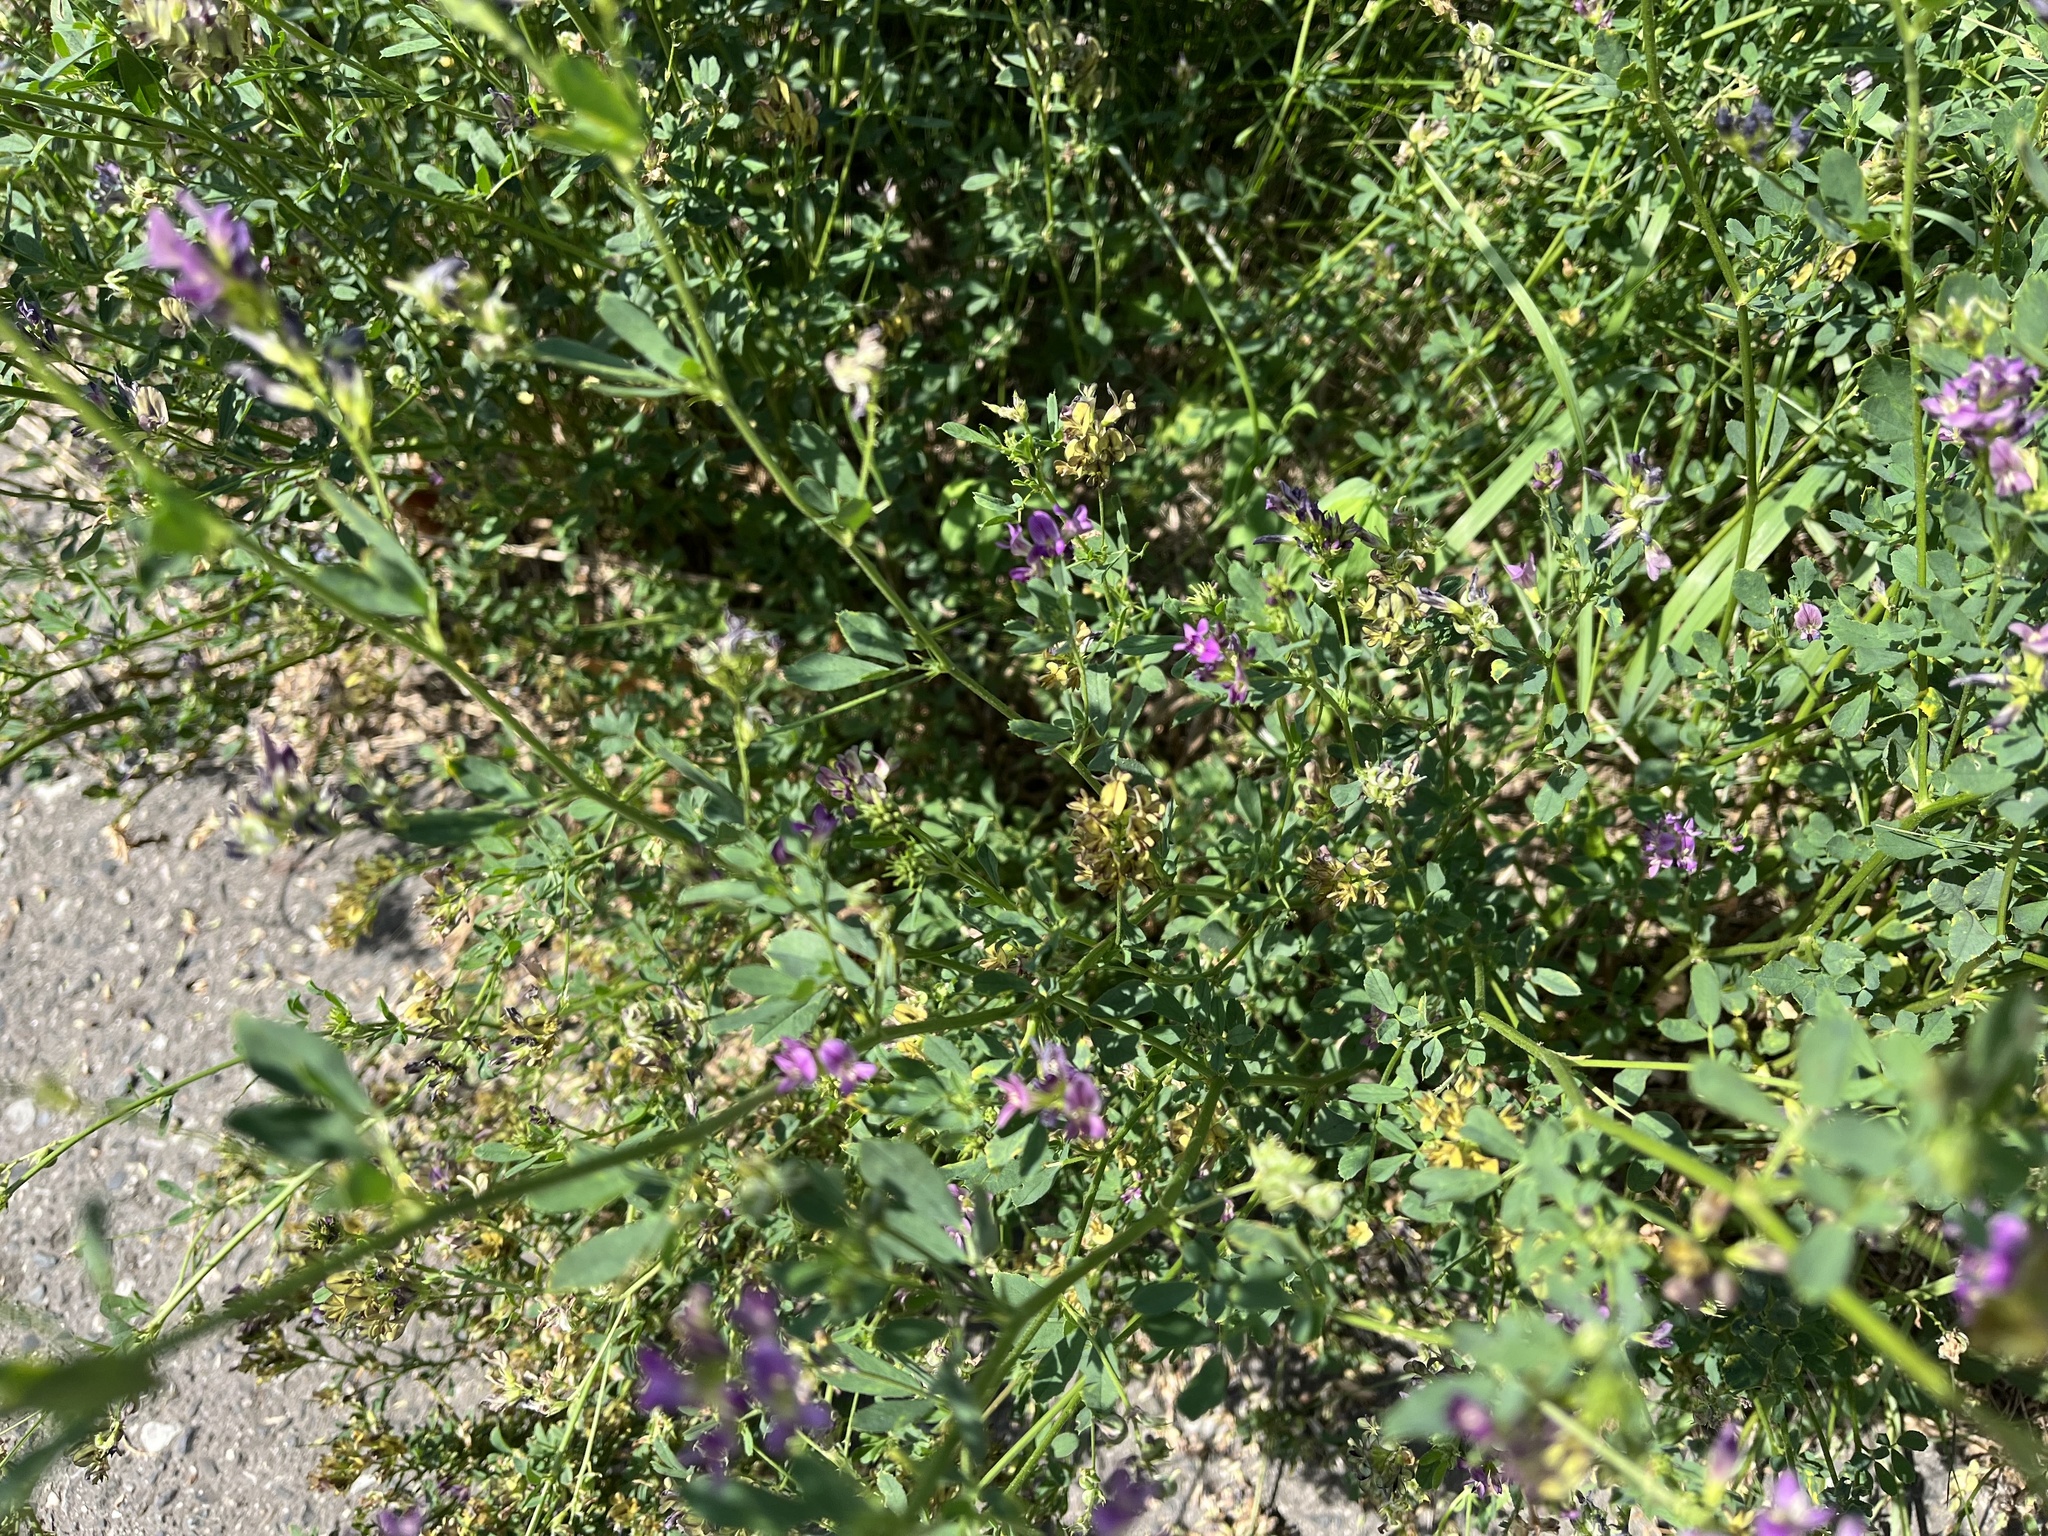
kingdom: Plantae
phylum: Tracheophyta
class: Magnoliopsida
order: Fabales
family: Fabaceae
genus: Medicago
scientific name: Medicago sativa
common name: Alfalfa
